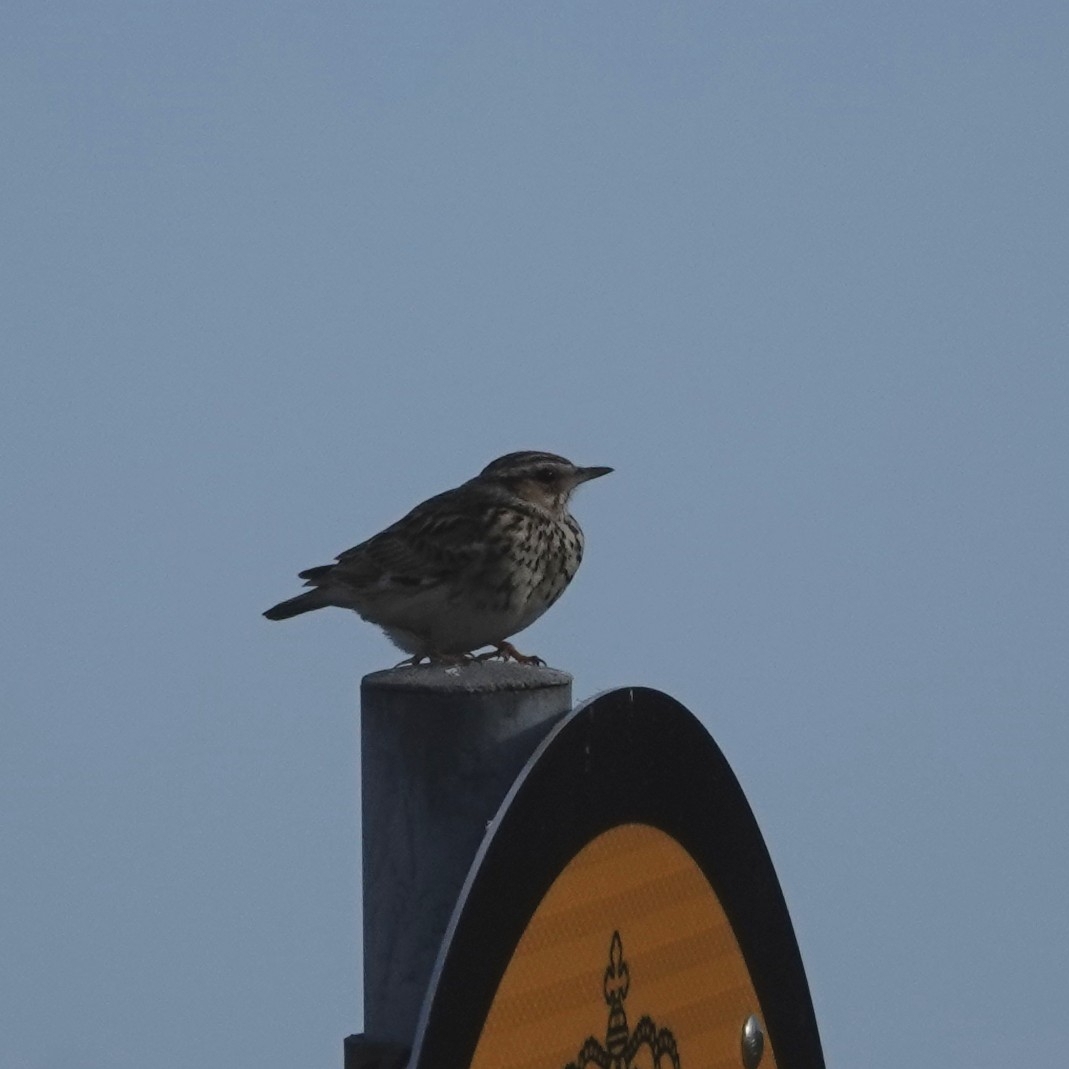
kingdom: Animalia
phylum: Chordata
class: Aves
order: Passeriformes
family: Alaudidae
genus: Lullula
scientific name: Lullula arborea
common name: Woodlark
